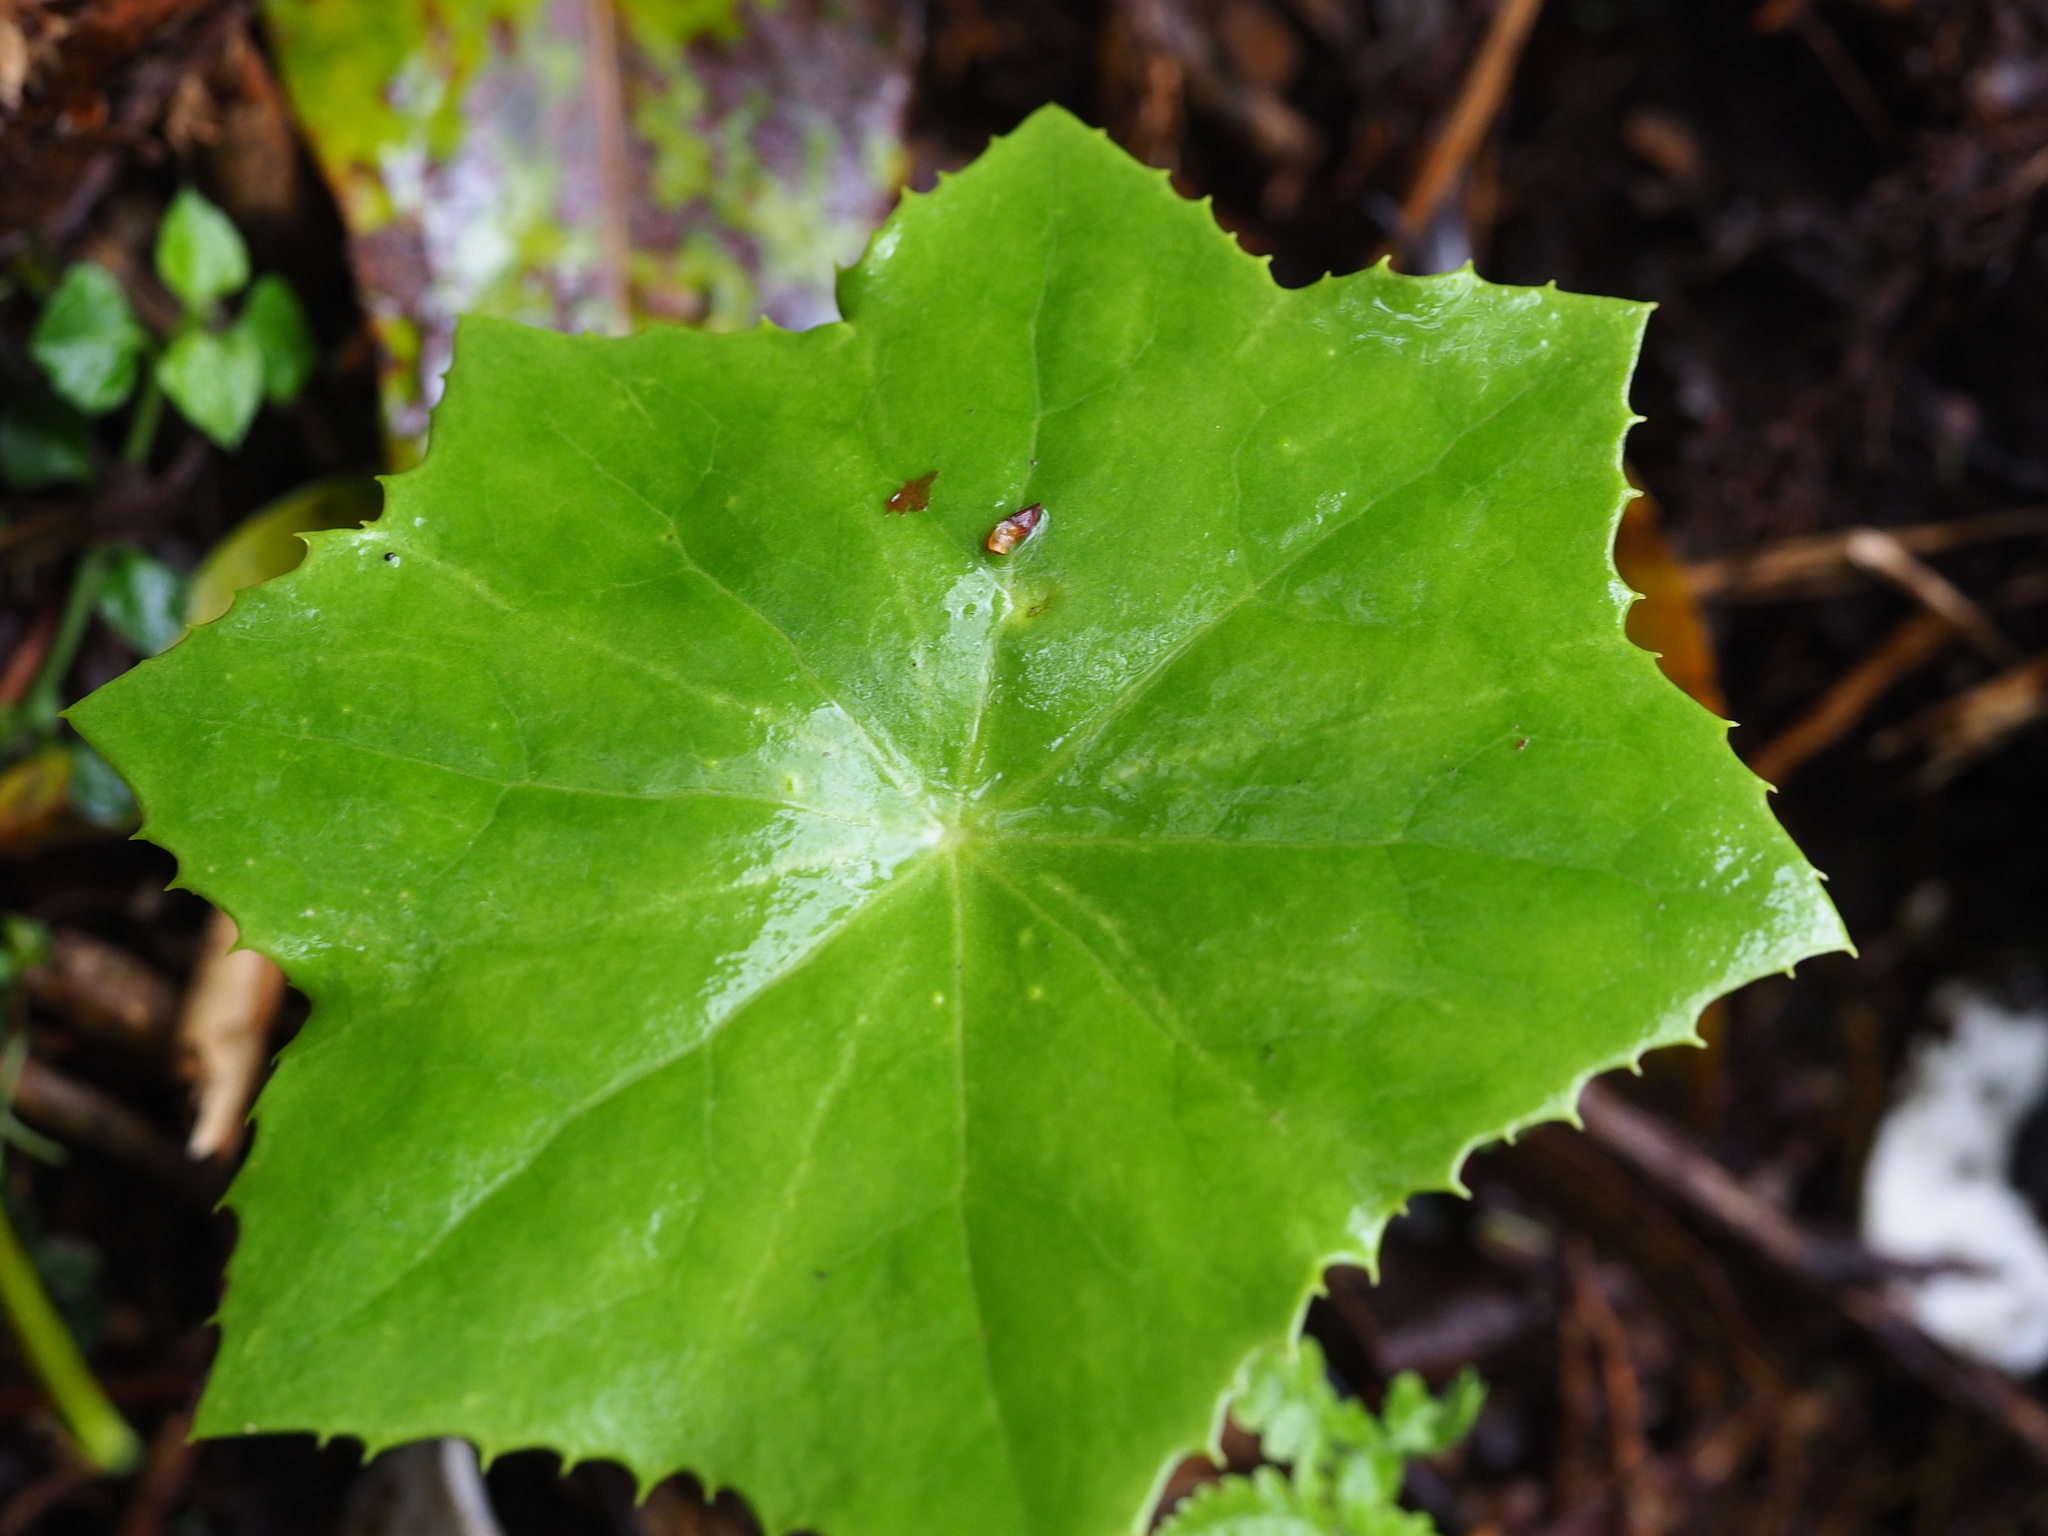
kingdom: Plantae
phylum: Tracheophyta
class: Magnoliopsida
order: Ranunculales
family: Berberidaceae
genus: Dysosma
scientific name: Dysosma pleiantha
